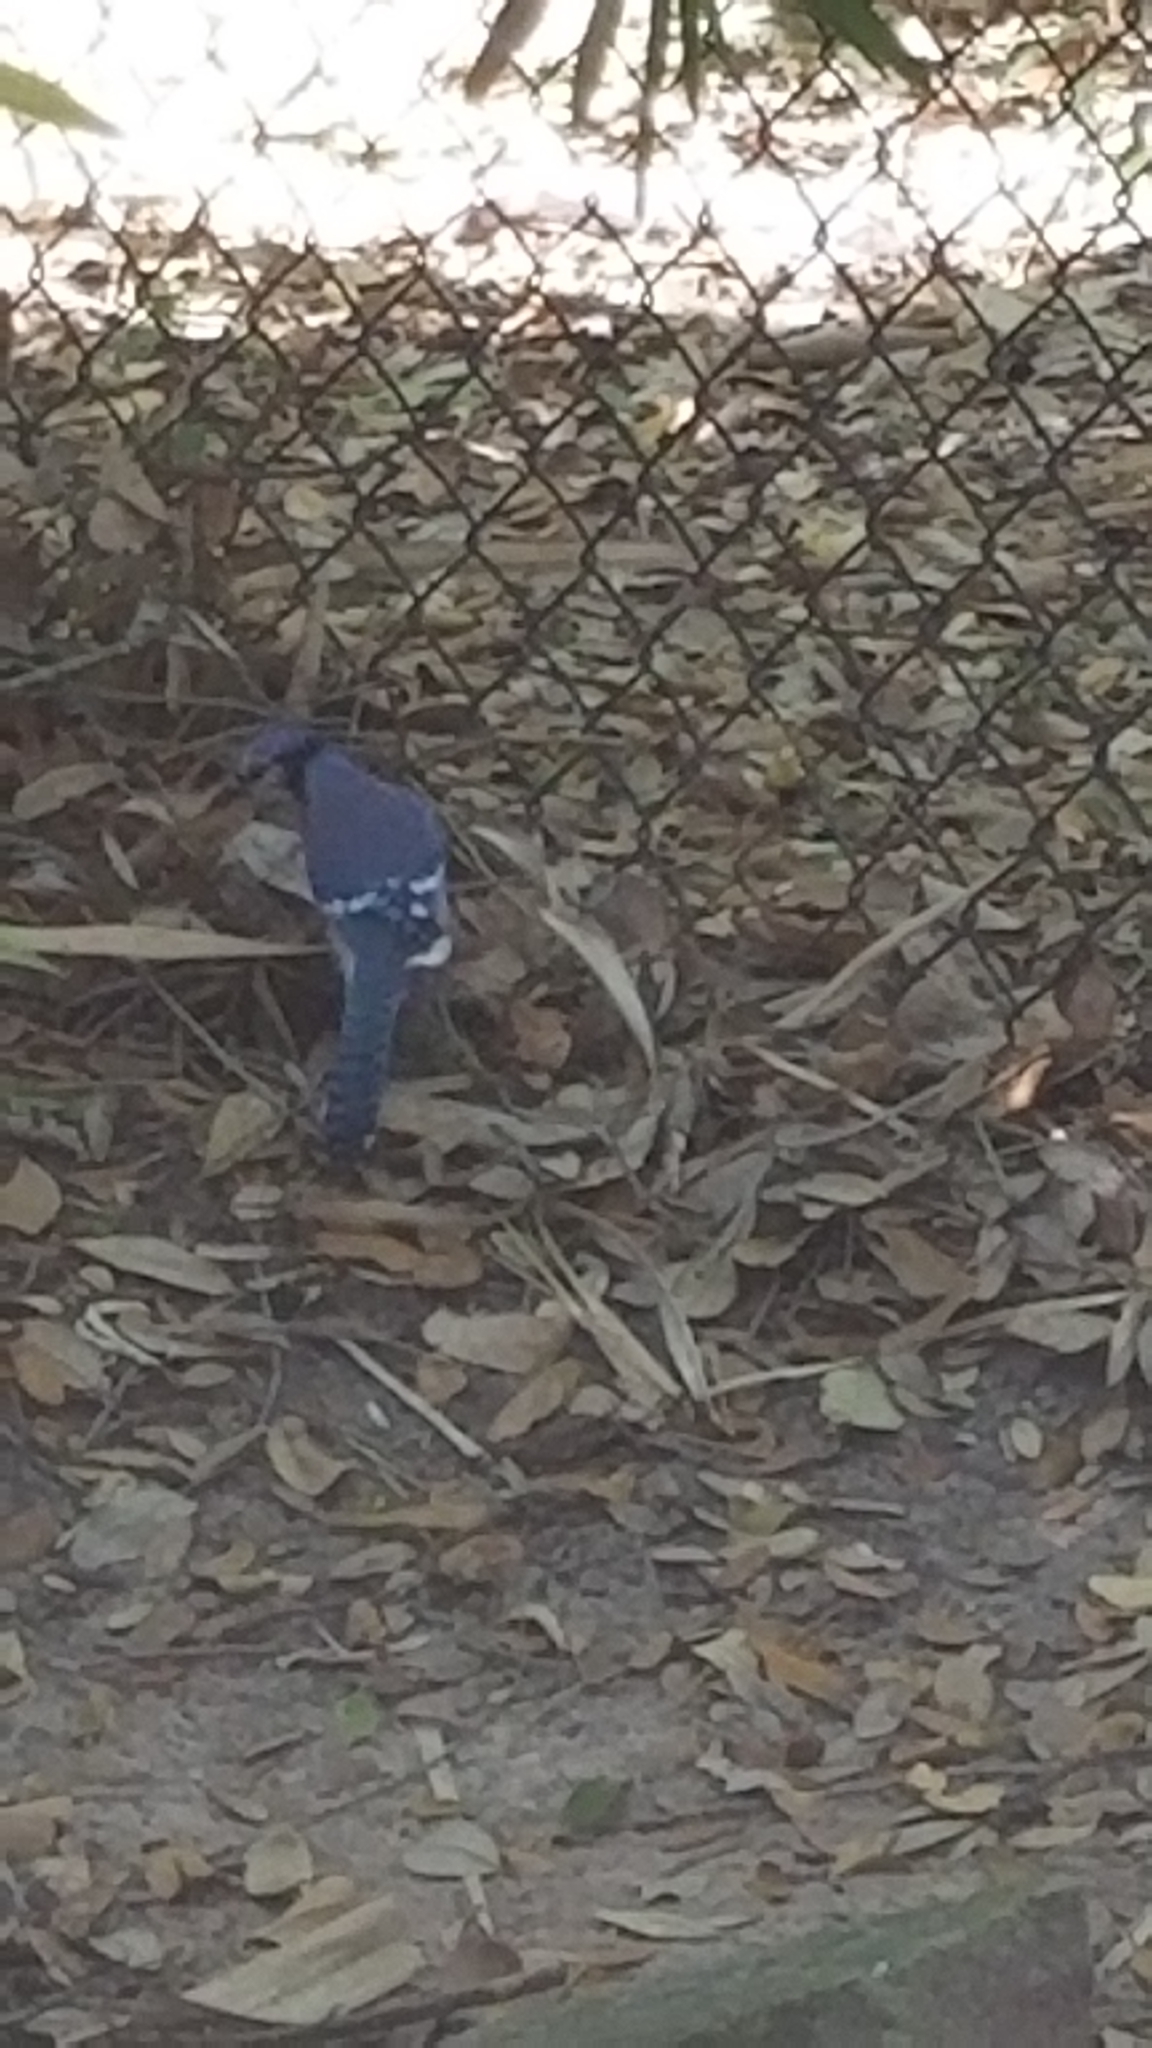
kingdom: Animalia
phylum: Chordata
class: Aves
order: Passeriformes
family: Corvidae
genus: Cyanocitta
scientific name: Cyanocitta cristata
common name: Blue jay
